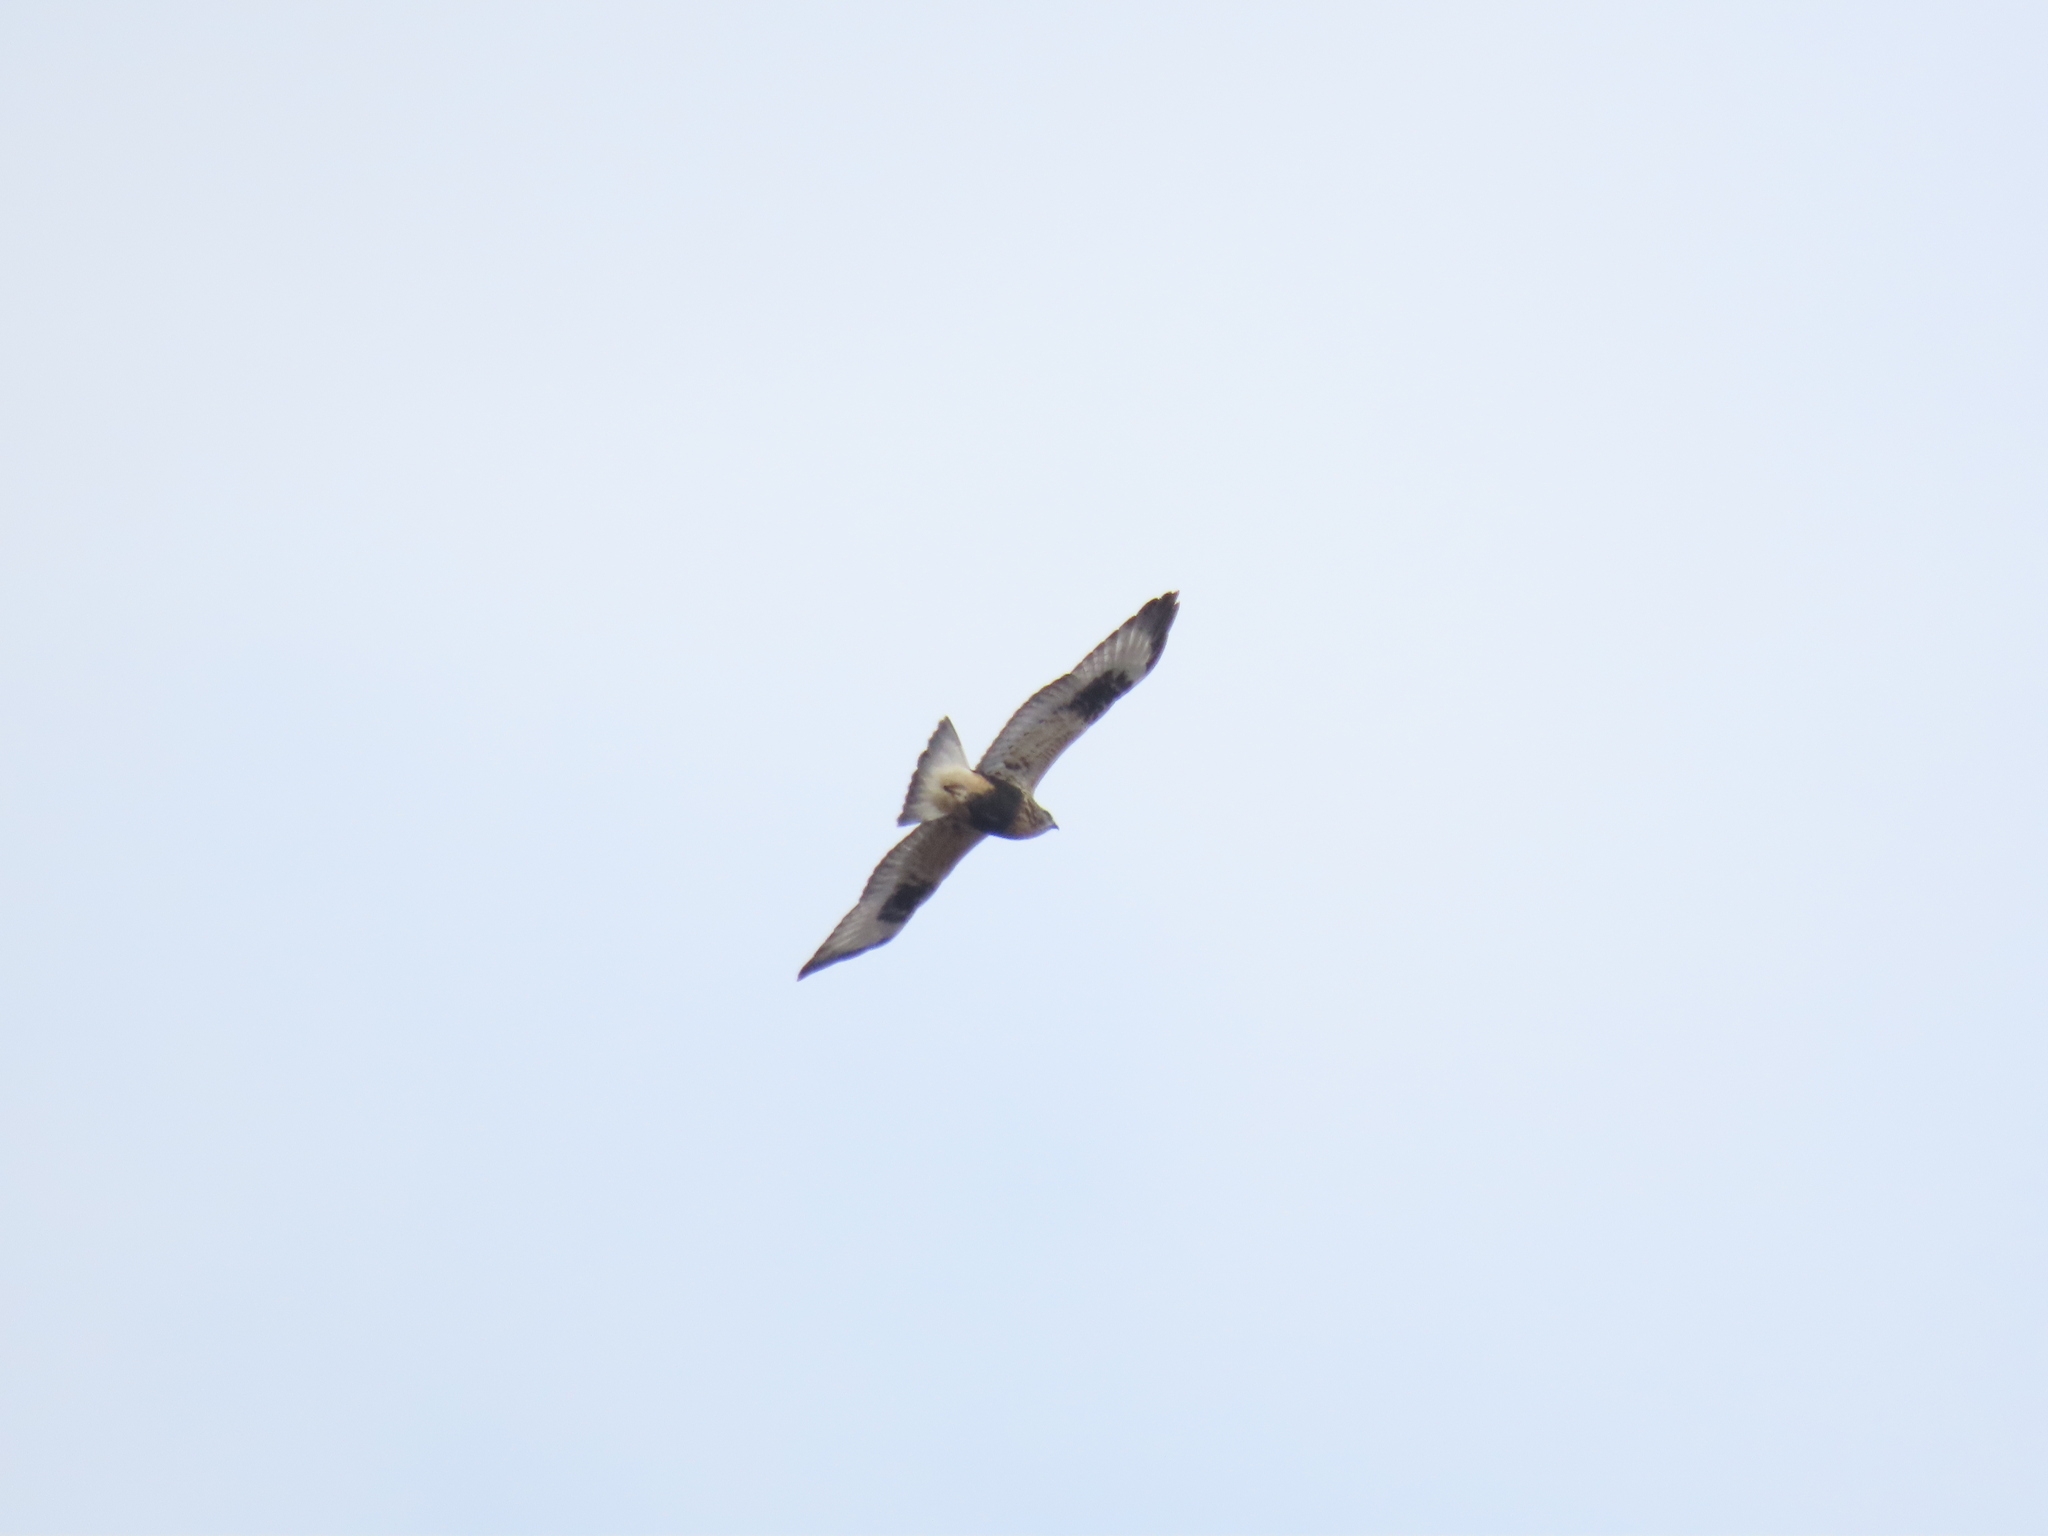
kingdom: Animalia
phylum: Chordata
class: Aves
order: Accipitriformes
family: Accipitridae
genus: Buteo
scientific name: Buteo lagopus
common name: Rough-legged buzzard
